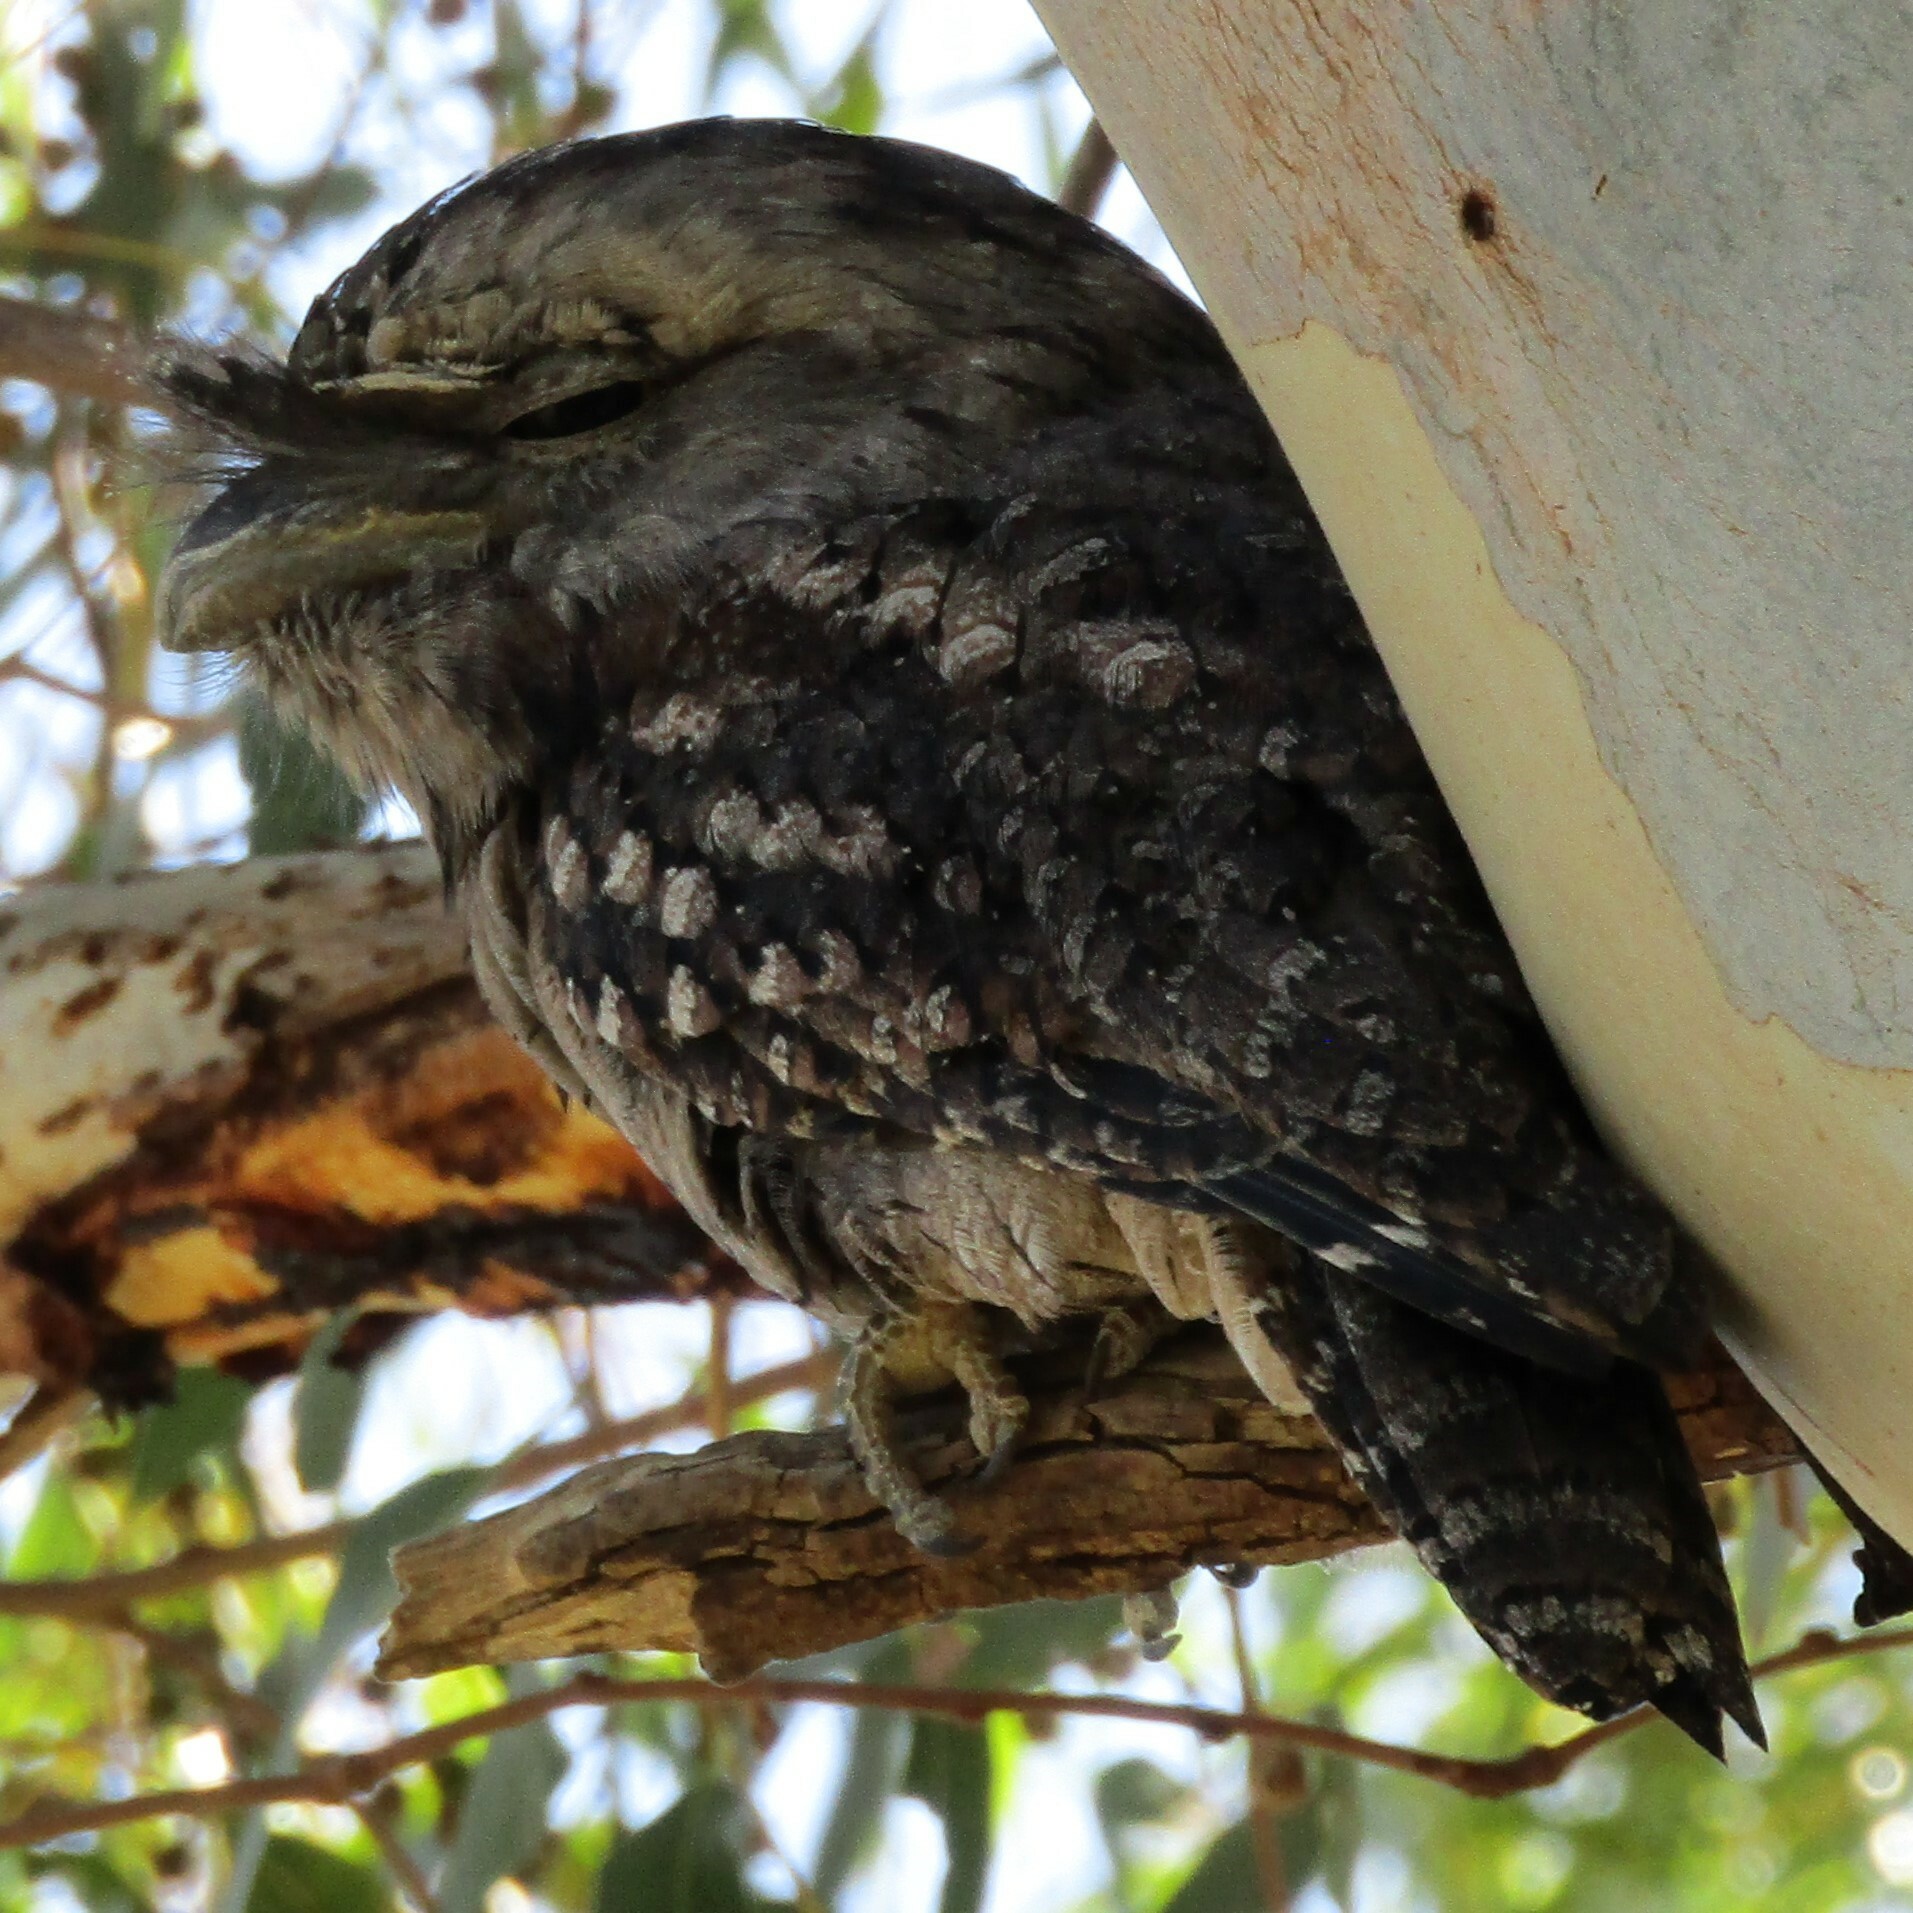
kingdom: Animalia
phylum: Chordata
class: Aves
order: Caprimulgiformes
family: Podargidae
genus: Podargus
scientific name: Podargus strigoides
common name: Tawny frogmouth
